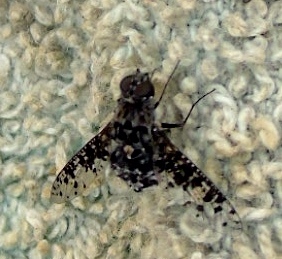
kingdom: Animalia
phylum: Arthropoda
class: Insecta
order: Diptera
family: Bombyliidae
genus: Anthrax
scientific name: Anthrax
